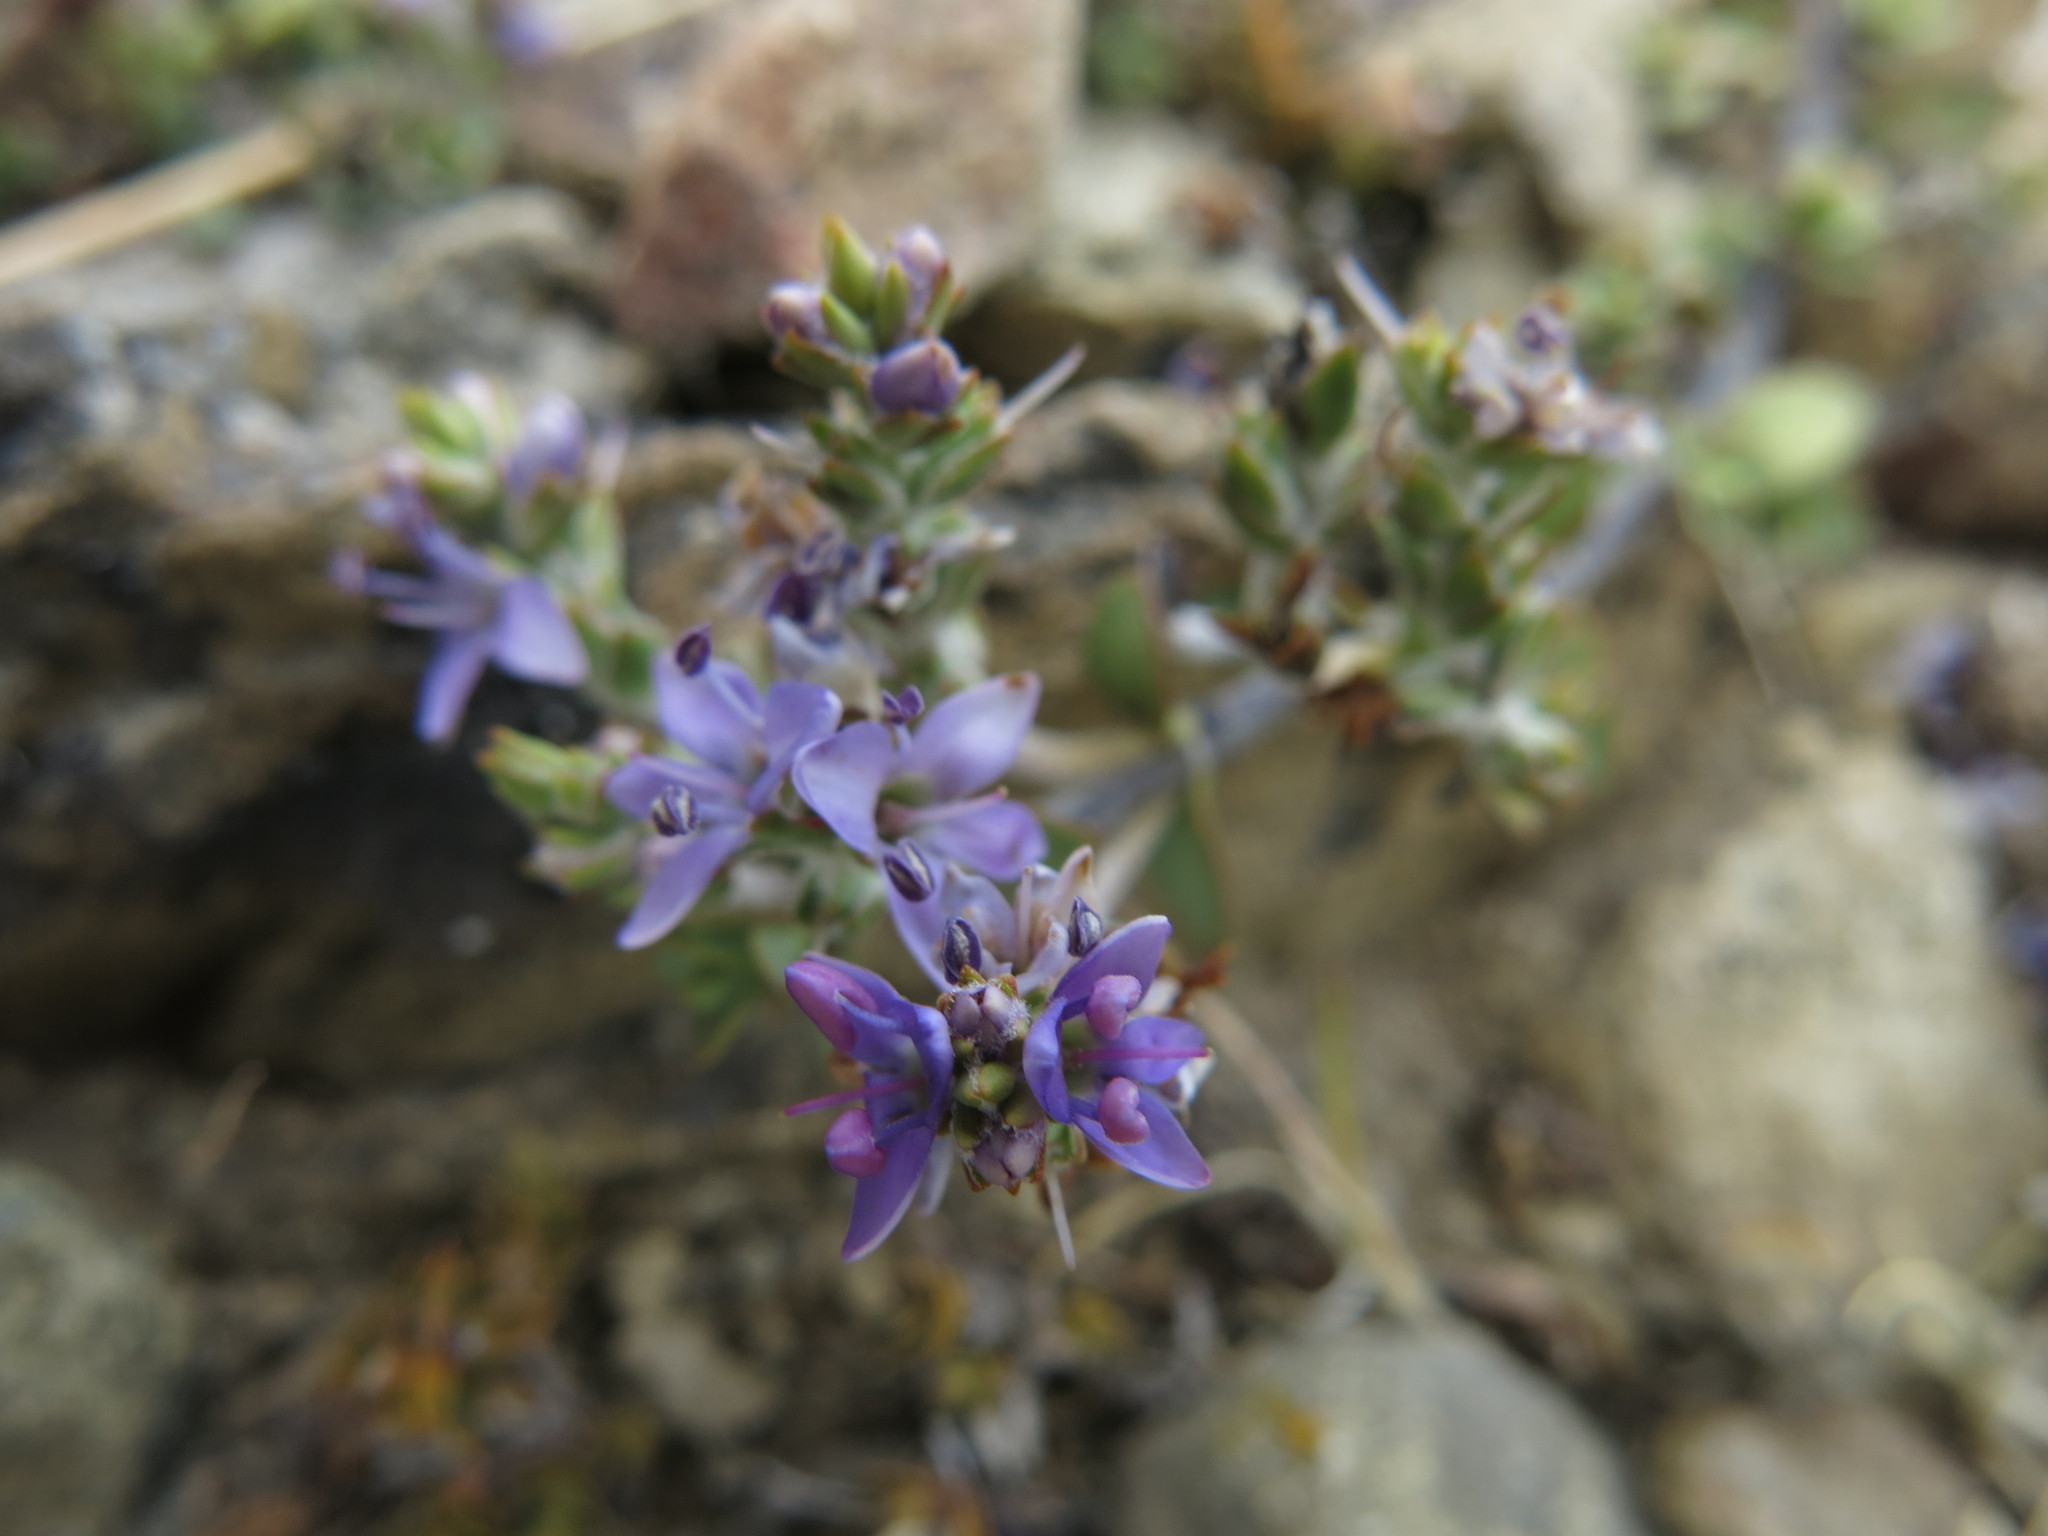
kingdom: Plantae
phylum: Tracheophyta
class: Magnoliopsida
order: Lamiales
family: Plantaginaceae
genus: Veronica
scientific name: Veronica pimeleoides
